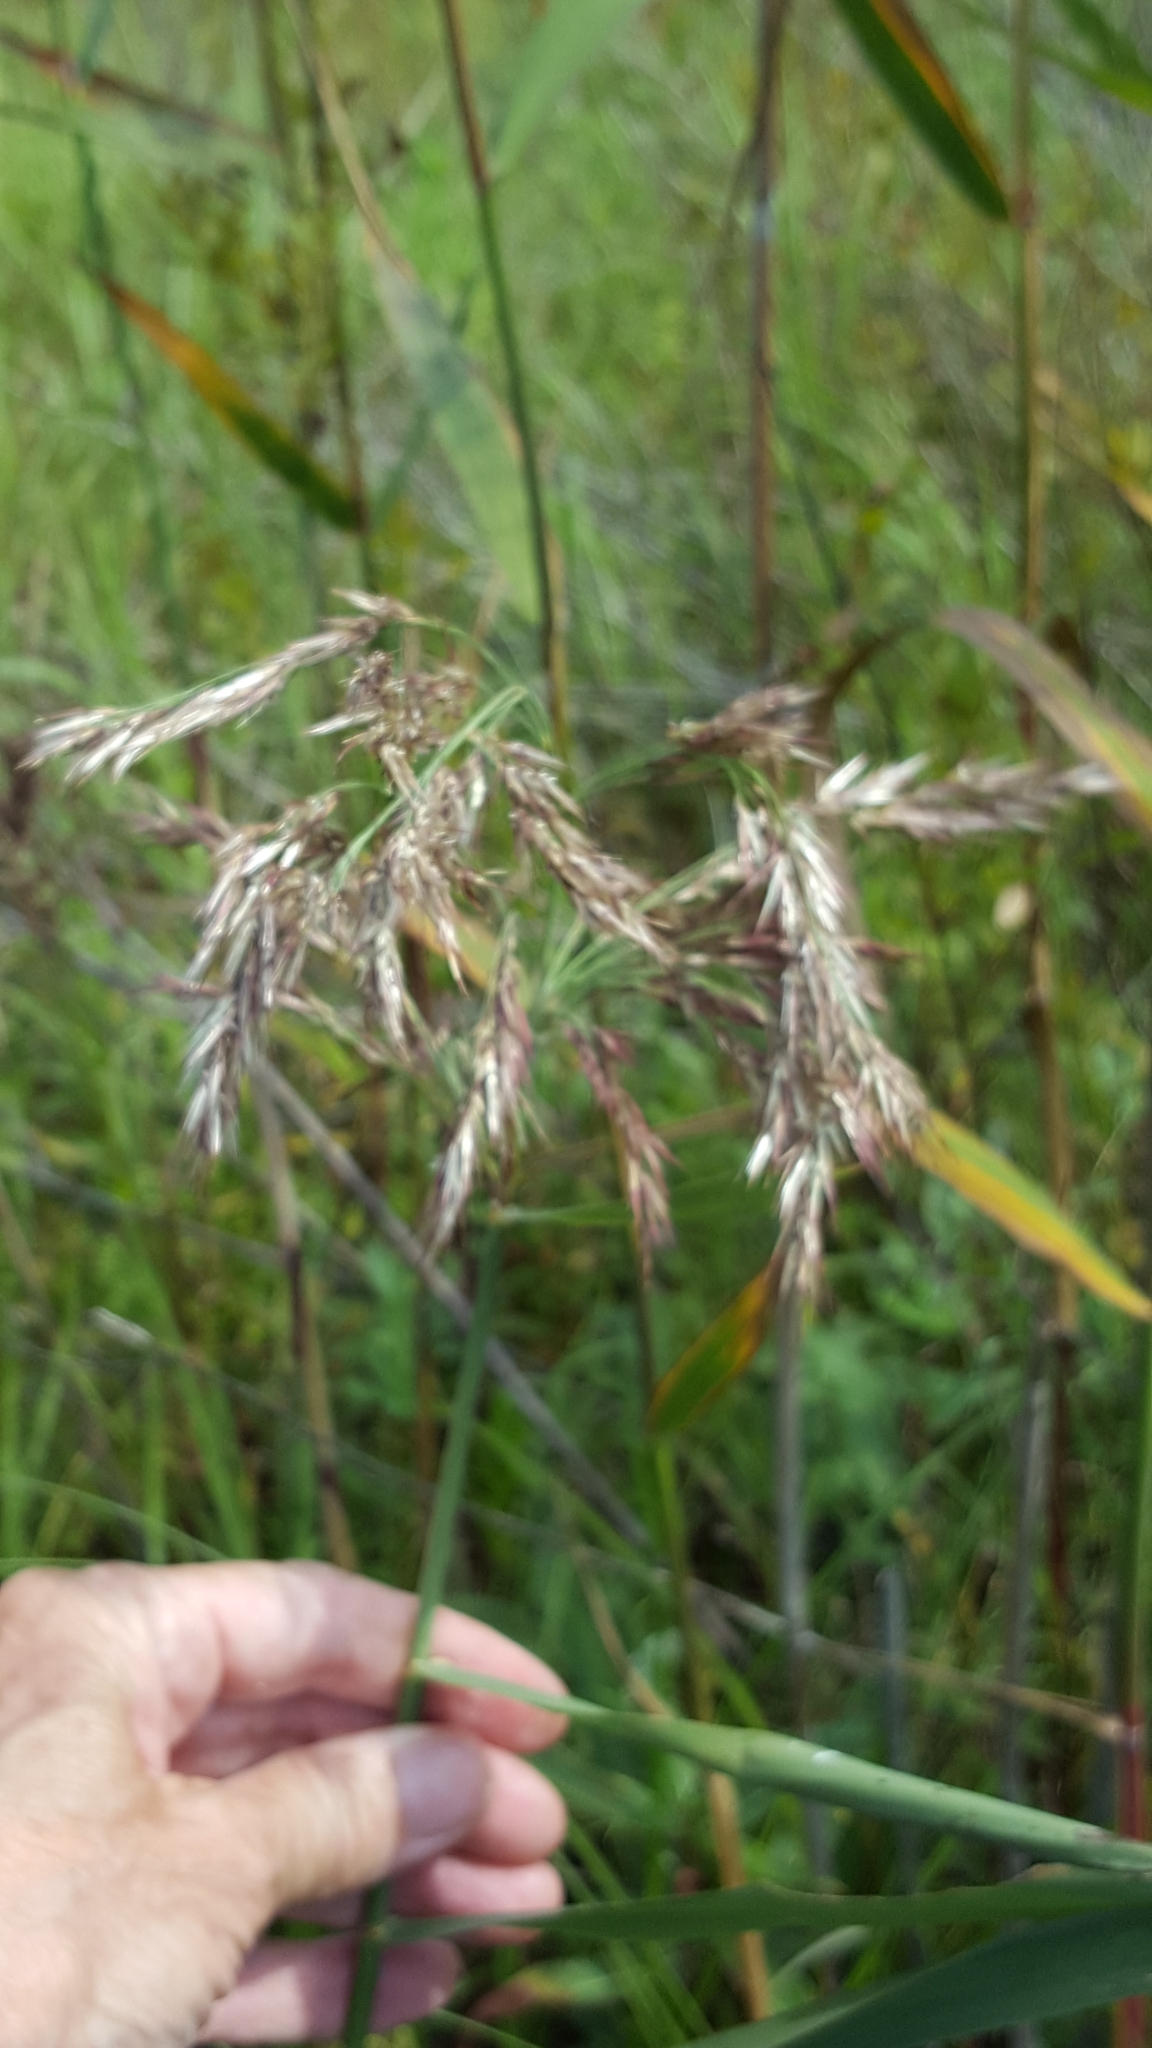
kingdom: Plantae
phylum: Tracheophyta
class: Liliopsida
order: Poales
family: Poaceae
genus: Phragmites
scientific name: Phragmites australis
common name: Common reed
